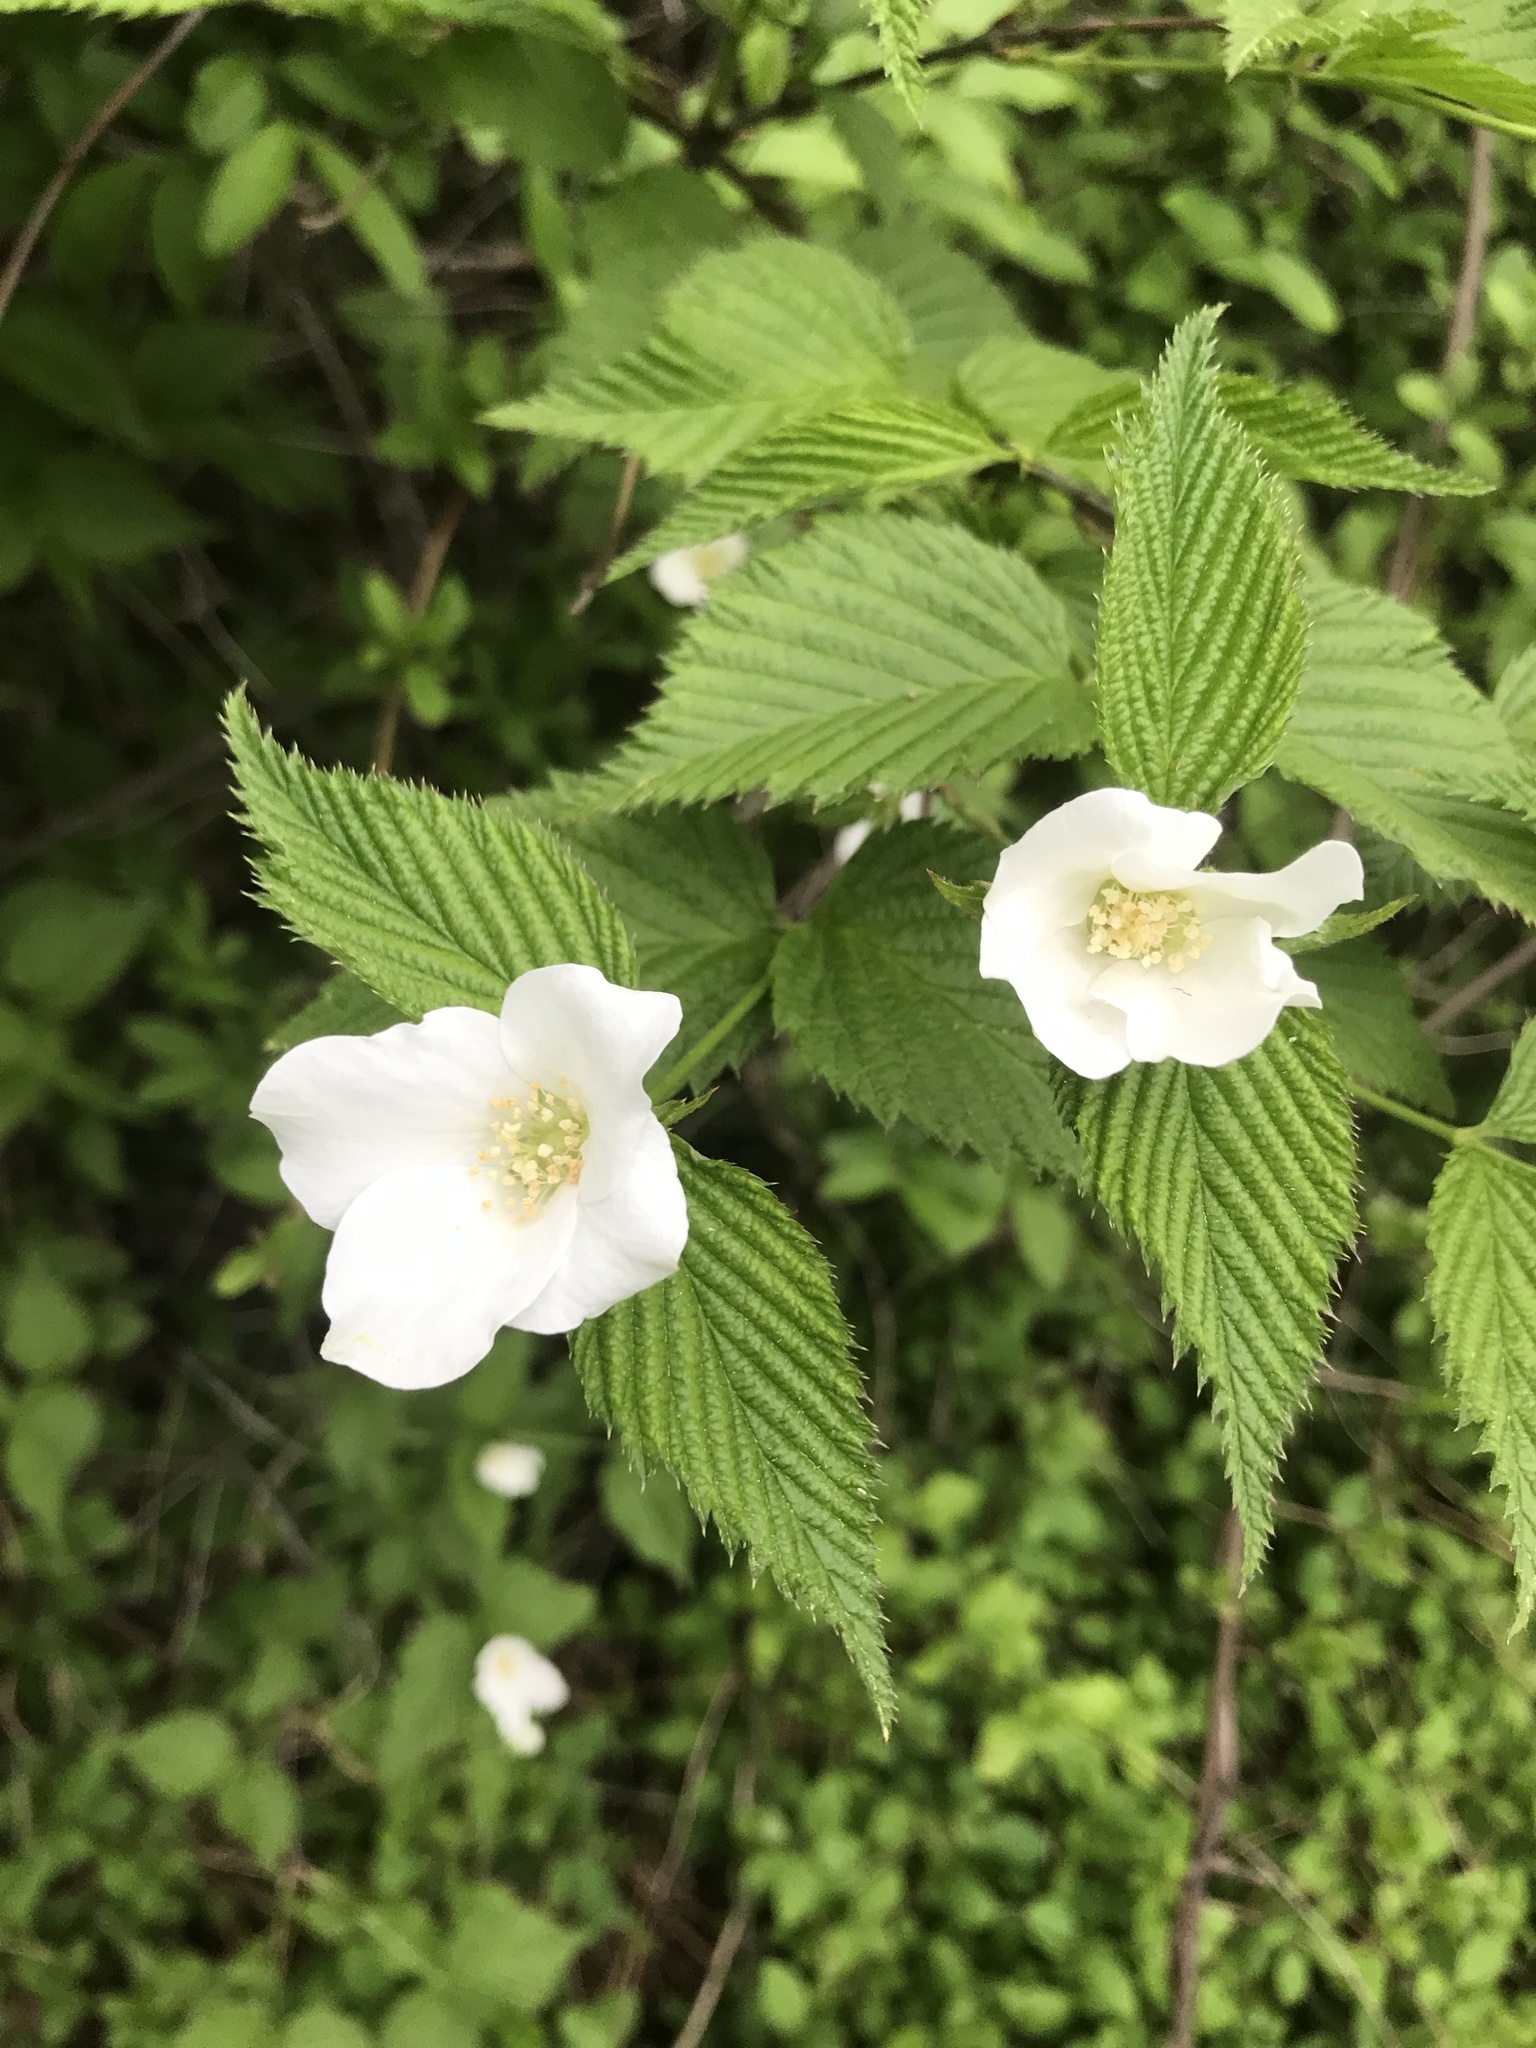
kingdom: Plantae
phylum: Tracheophyta
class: Magnoliopsida
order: Rosales
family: Rosaceae
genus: Rhodotypos
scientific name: Rhodotypos scandens
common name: Jetbead
